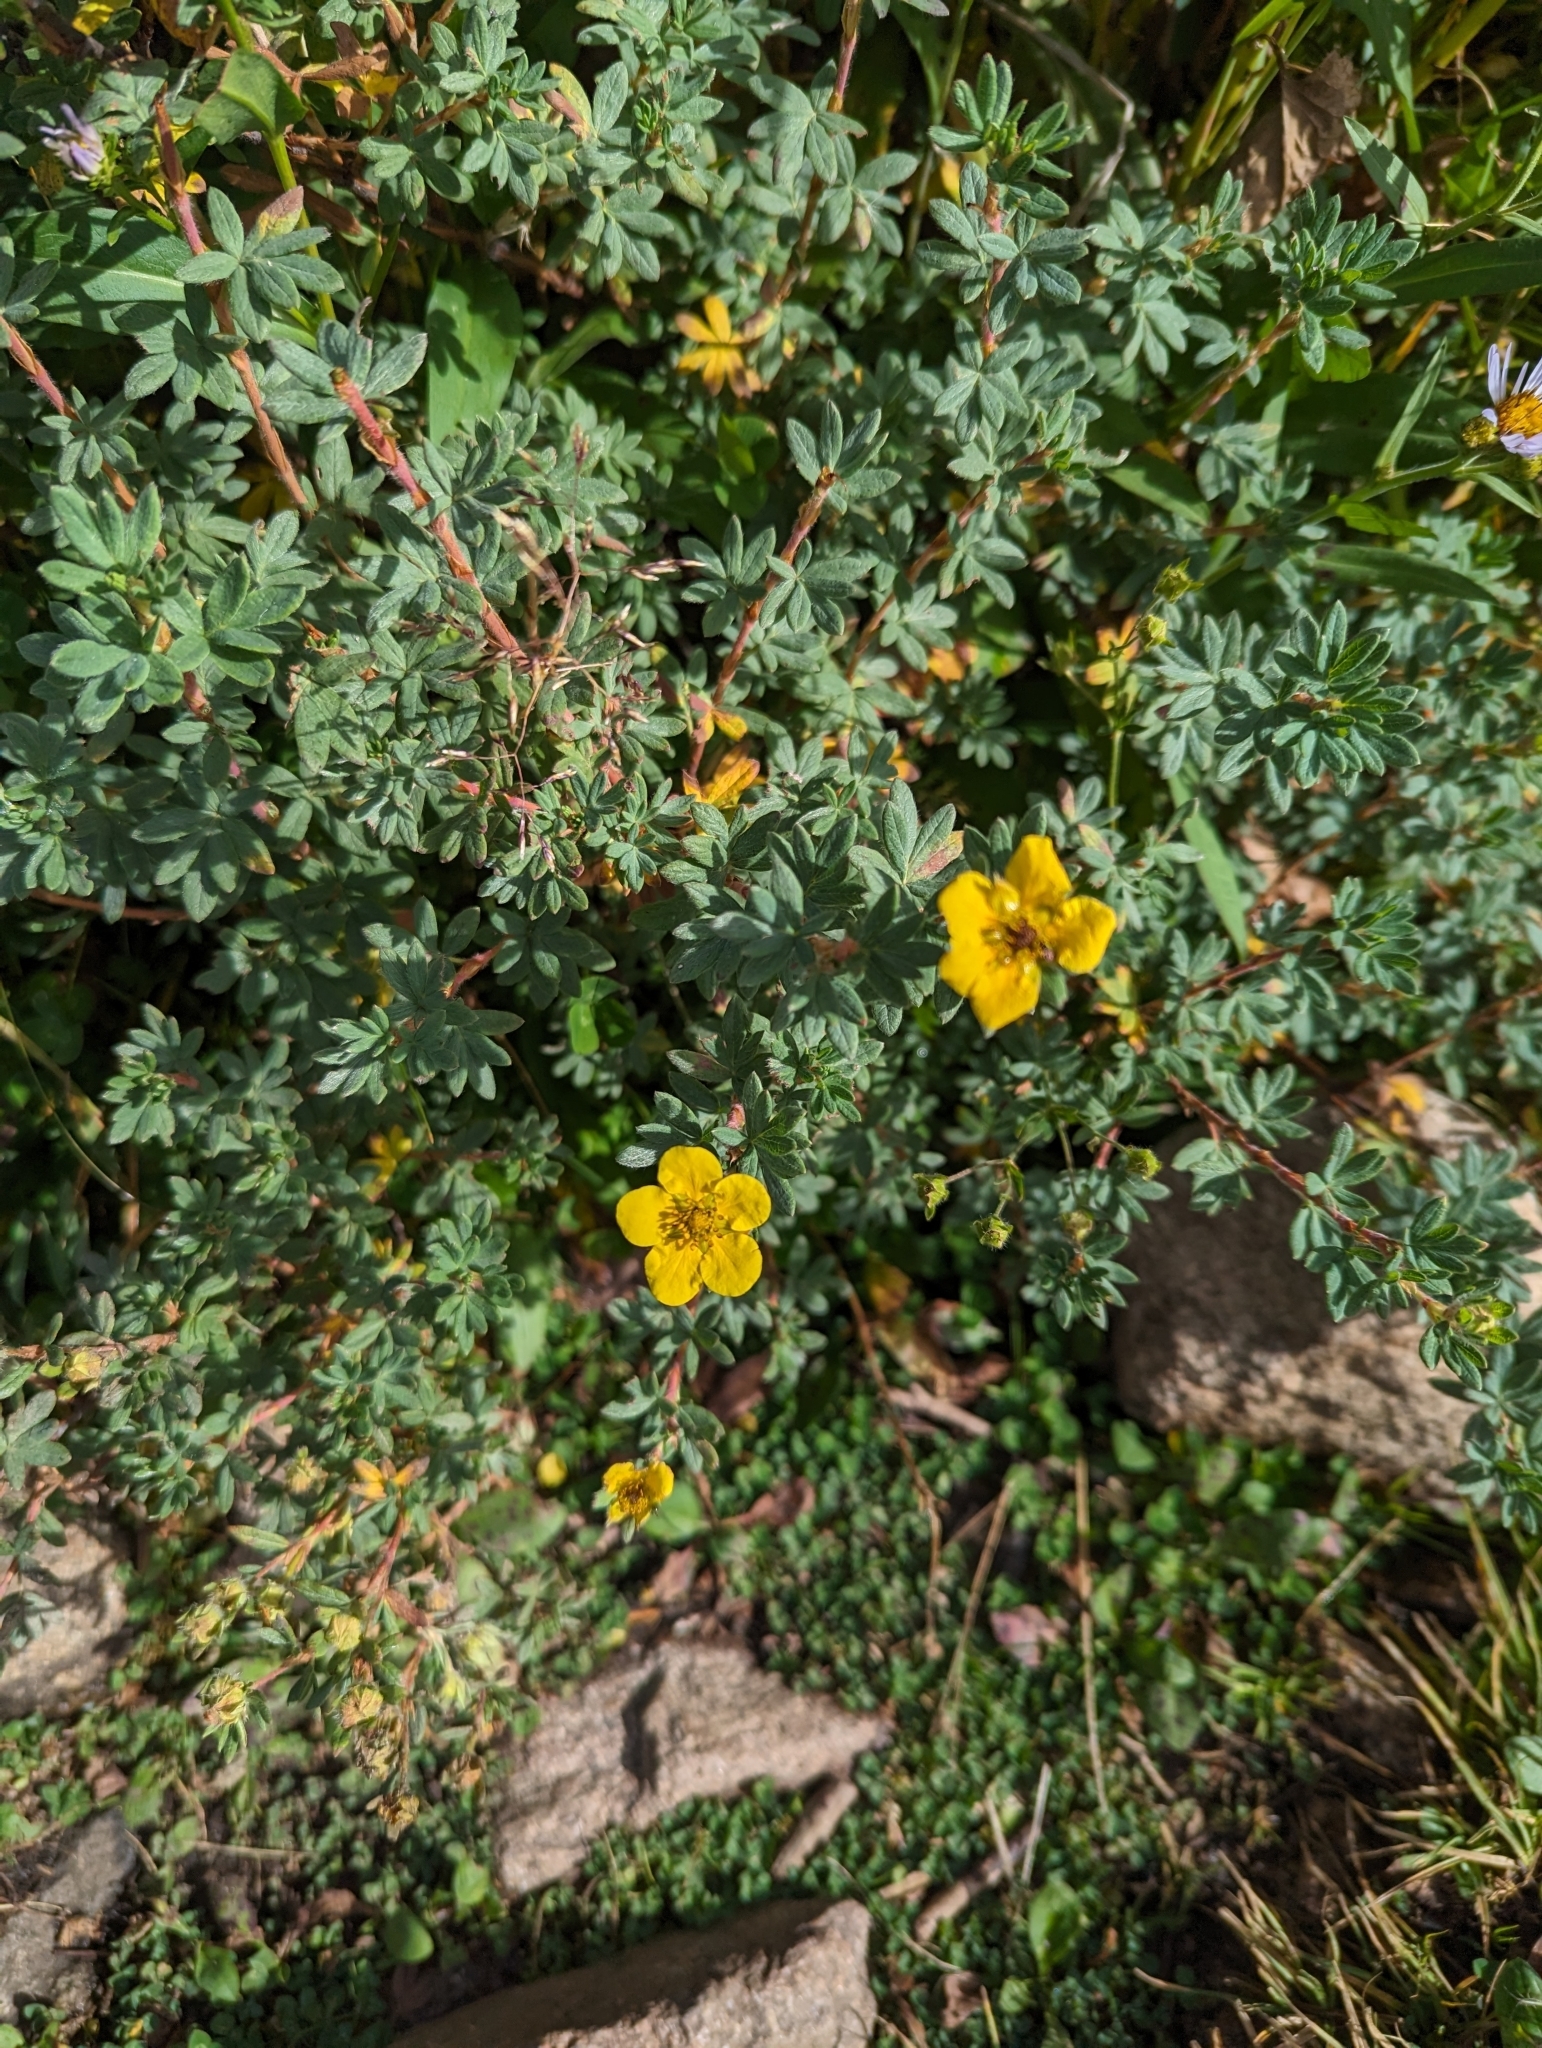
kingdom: Plantae
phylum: Tracheophyta
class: Magnoliopsida
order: Rosales
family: Rosaceae
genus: Dasiphora
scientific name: Dasiphora fruticosa
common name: Shrubby cinquefoil
